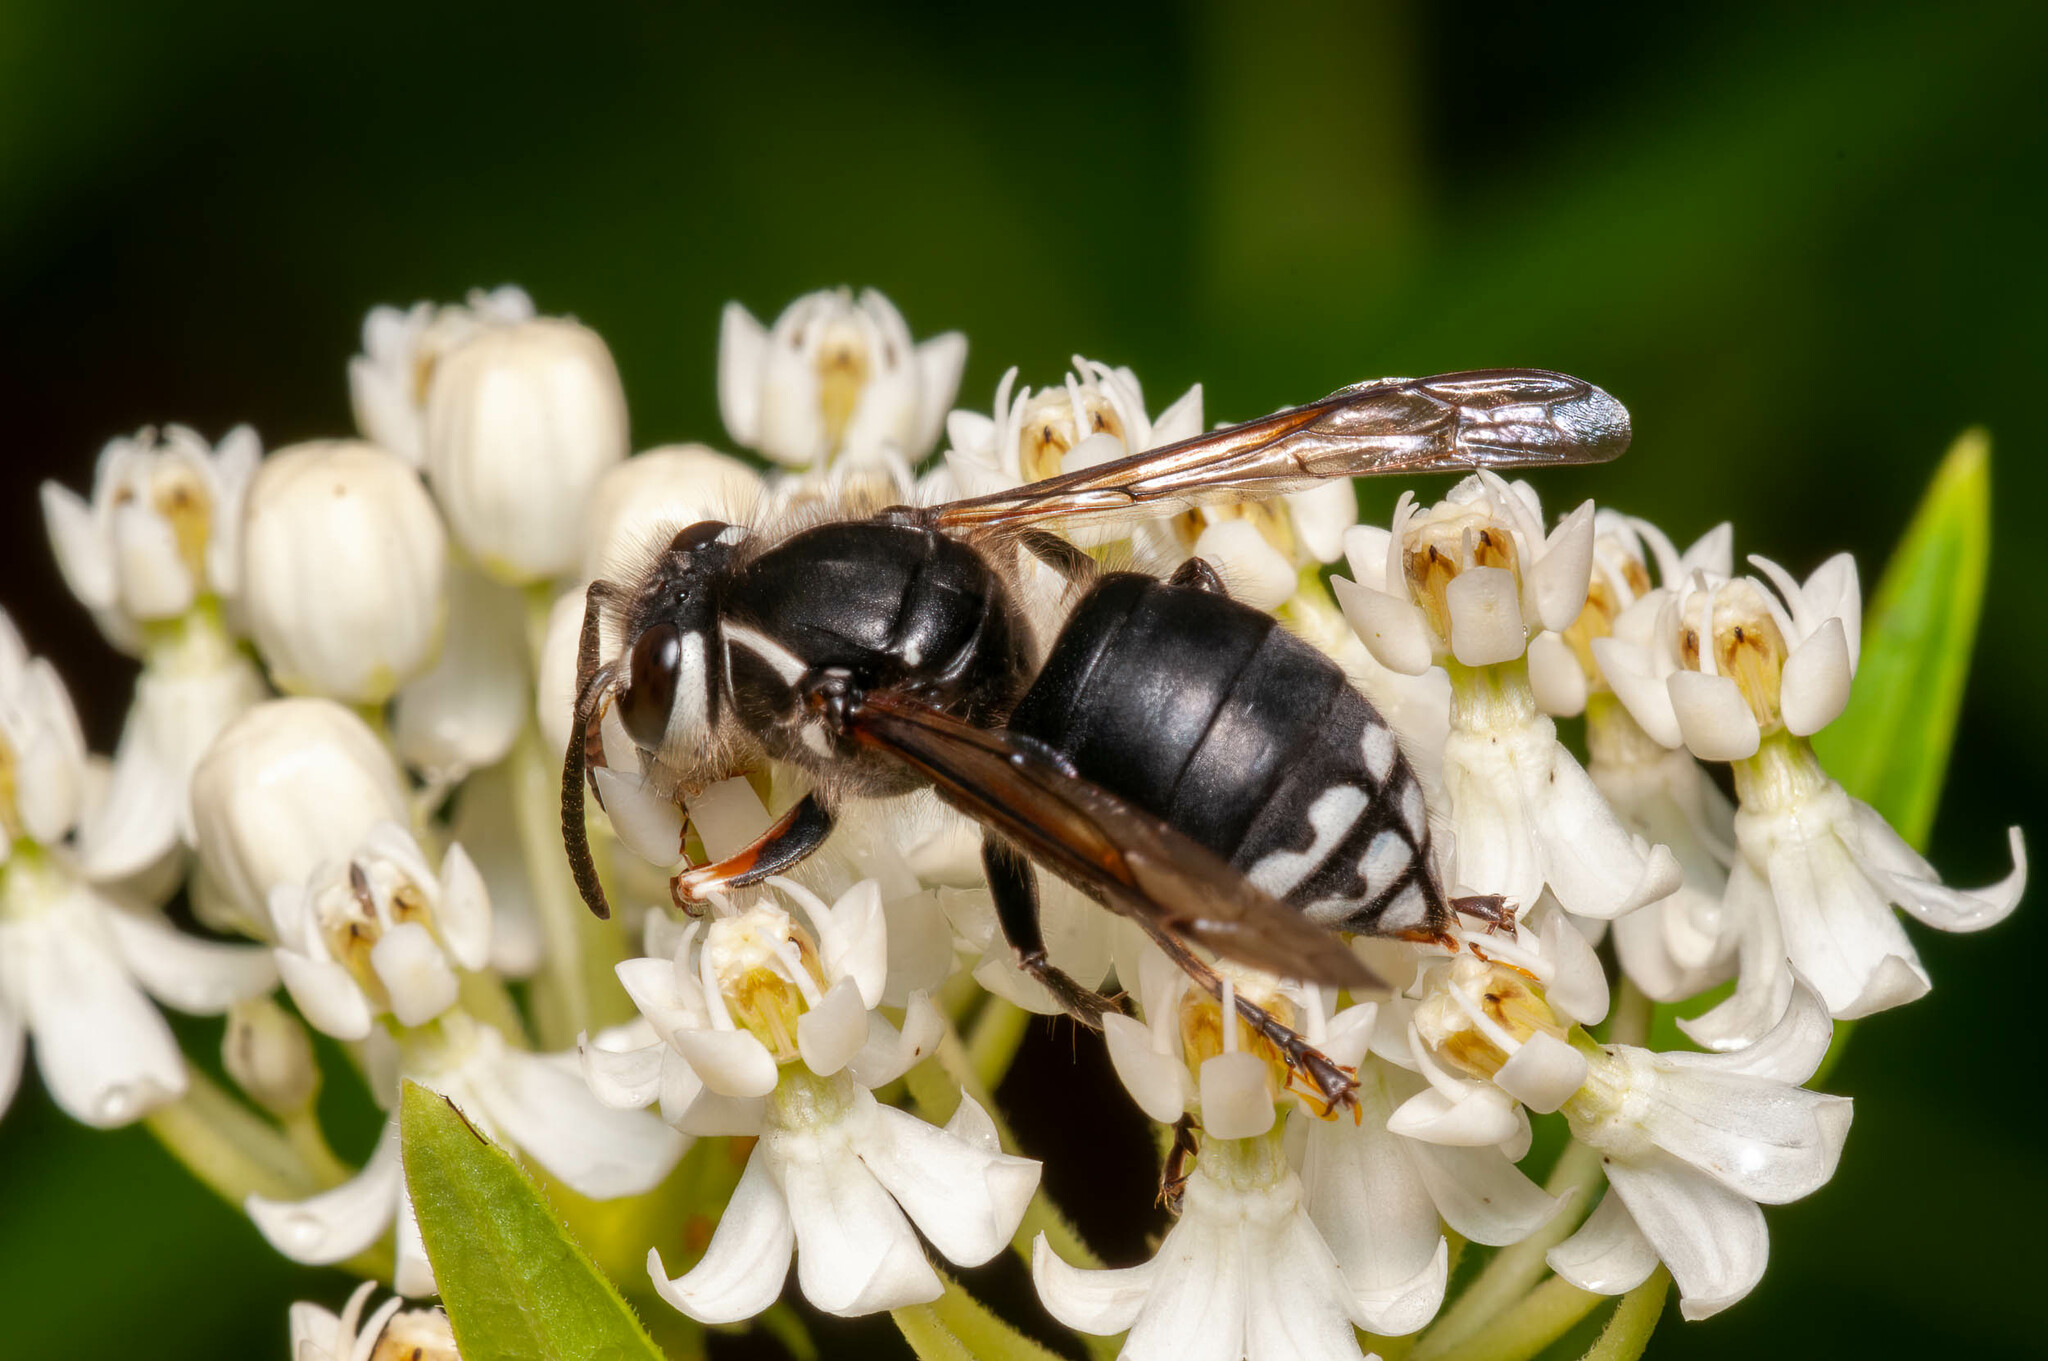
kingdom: Animalia
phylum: Arthropoda
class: Insecta
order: Hymenoptera
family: Vespidae
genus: Dolichovespula
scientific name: Dolichovespula maculata
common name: Bald-faced hornet
